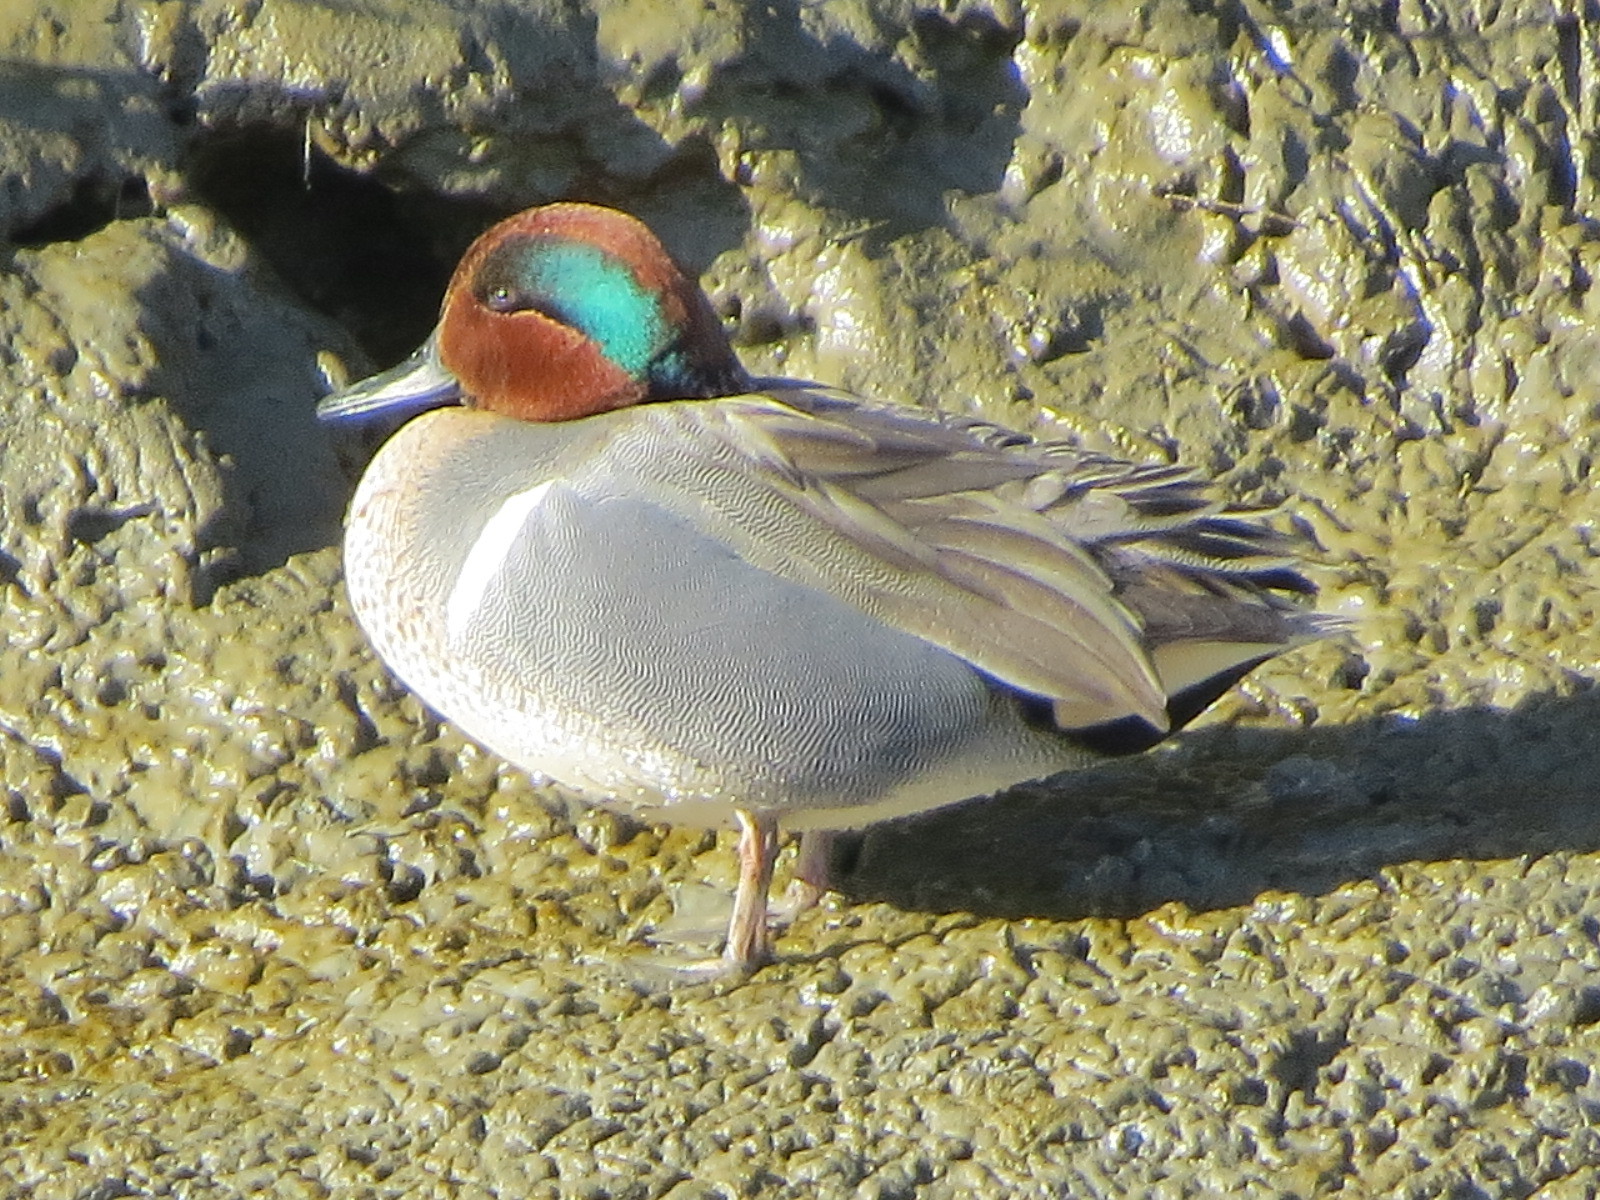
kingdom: Animalia
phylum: Chordata
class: Aves
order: Anseriformes
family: Anatidae
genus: Anas
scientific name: Anas crecca
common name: Eurasian teal
